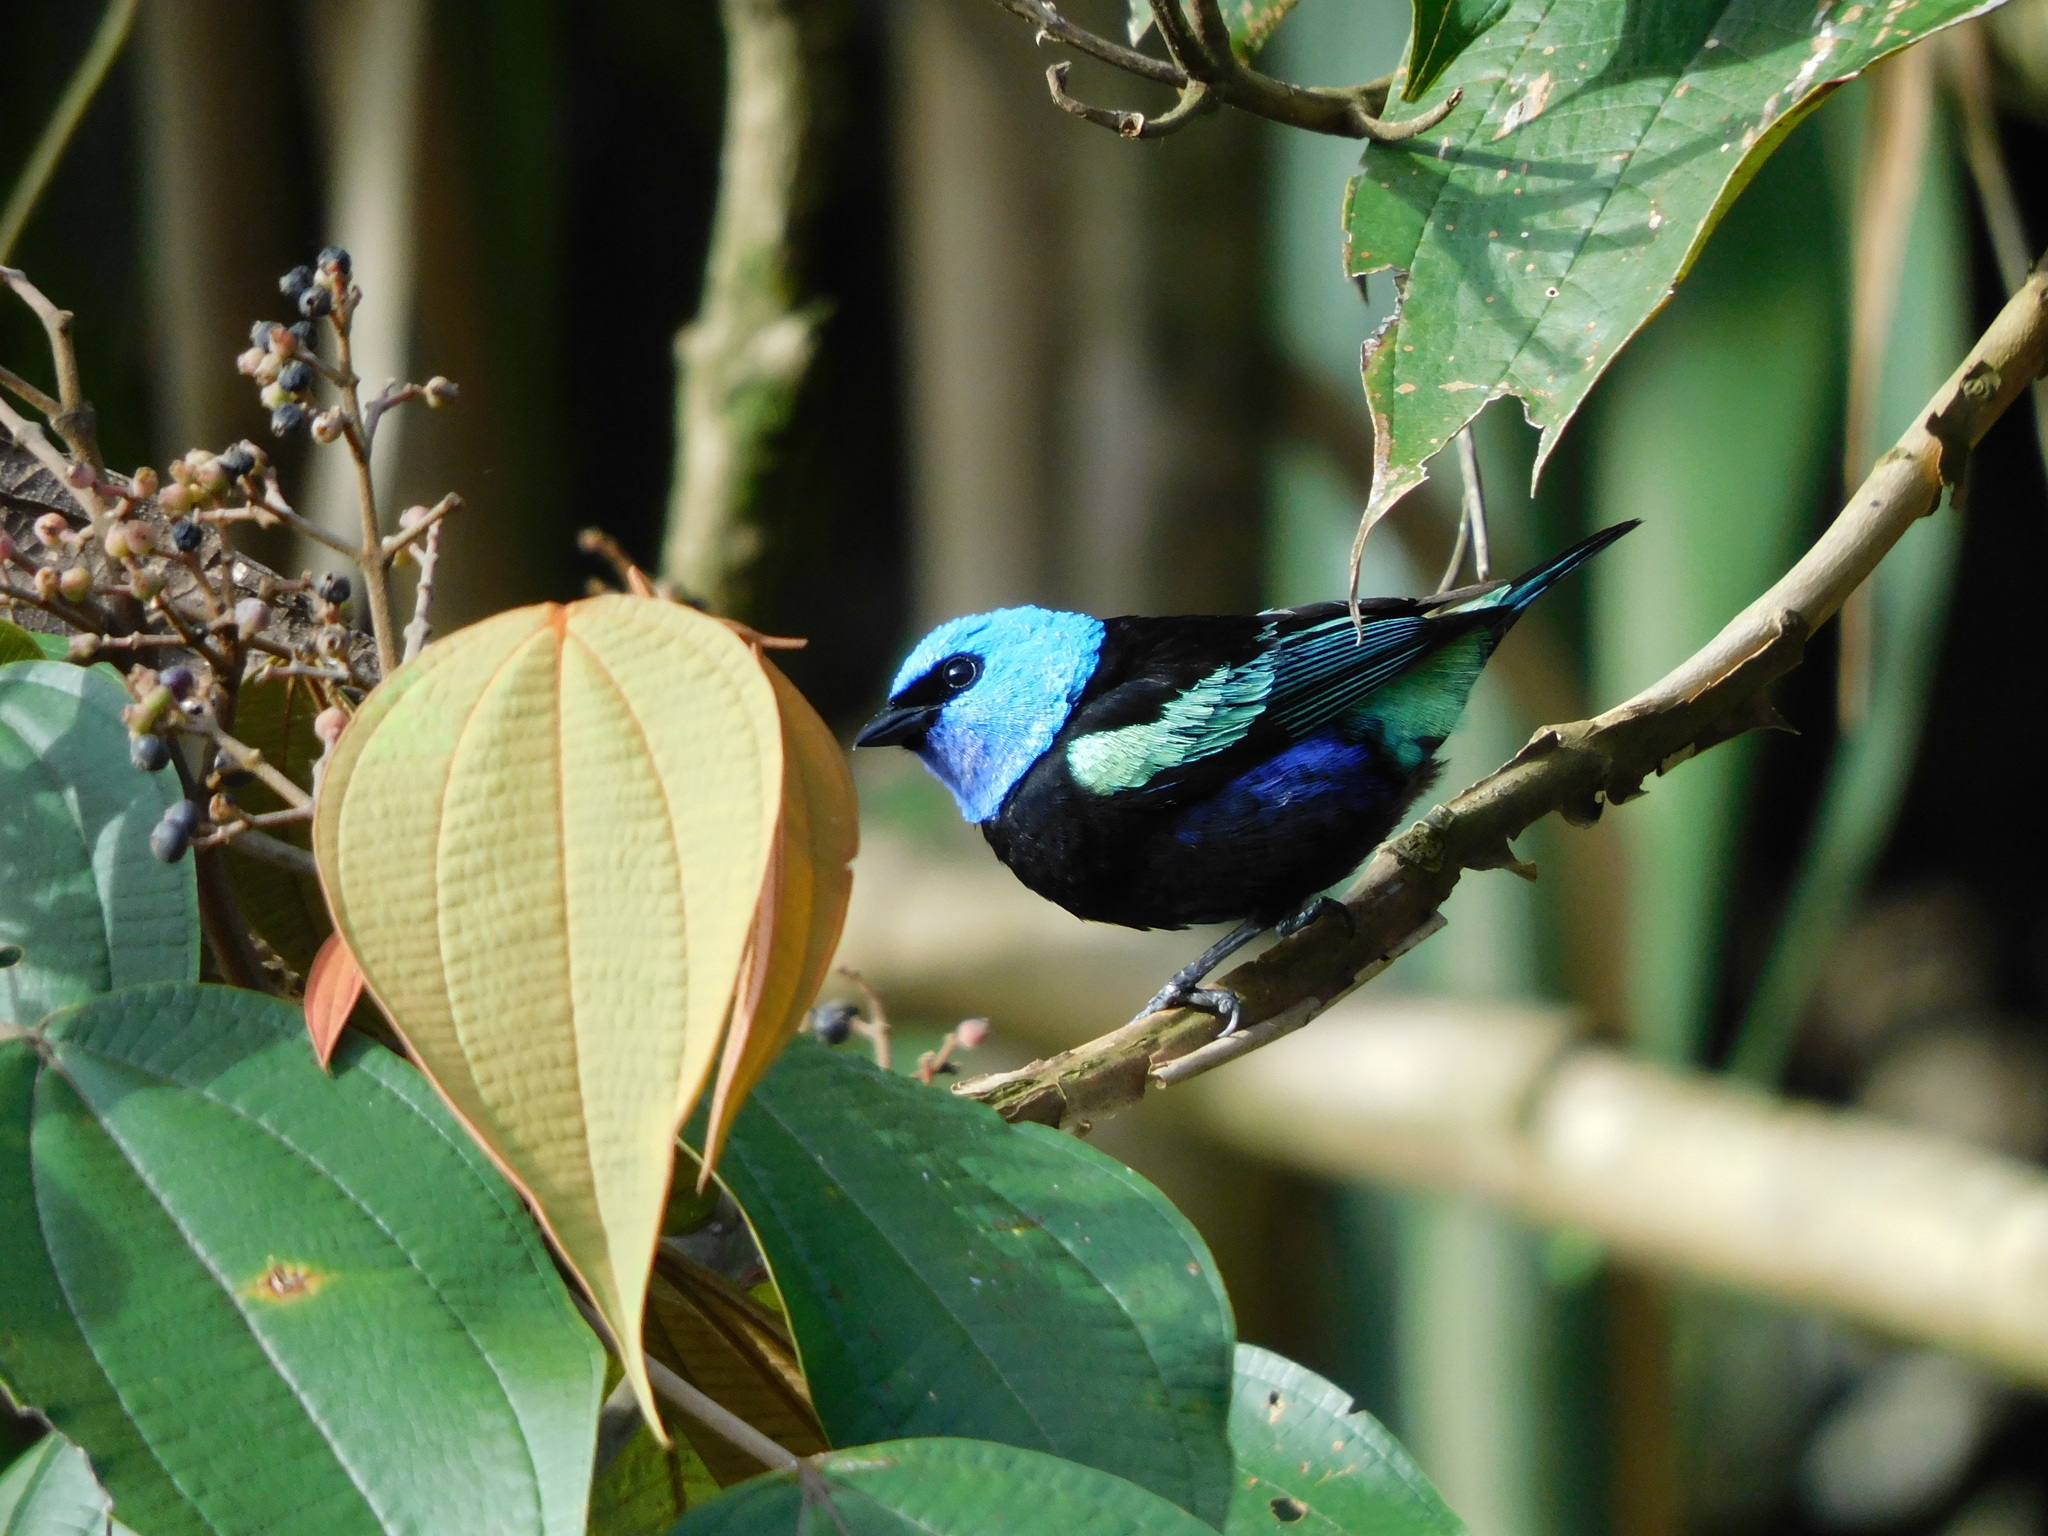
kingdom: Animalia
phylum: Chordata
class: Aves
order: Passeriformes
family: Thraupidae
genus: Stilpnia
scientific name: Stilpnia cyanicollis
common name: Blue-necked tanager
